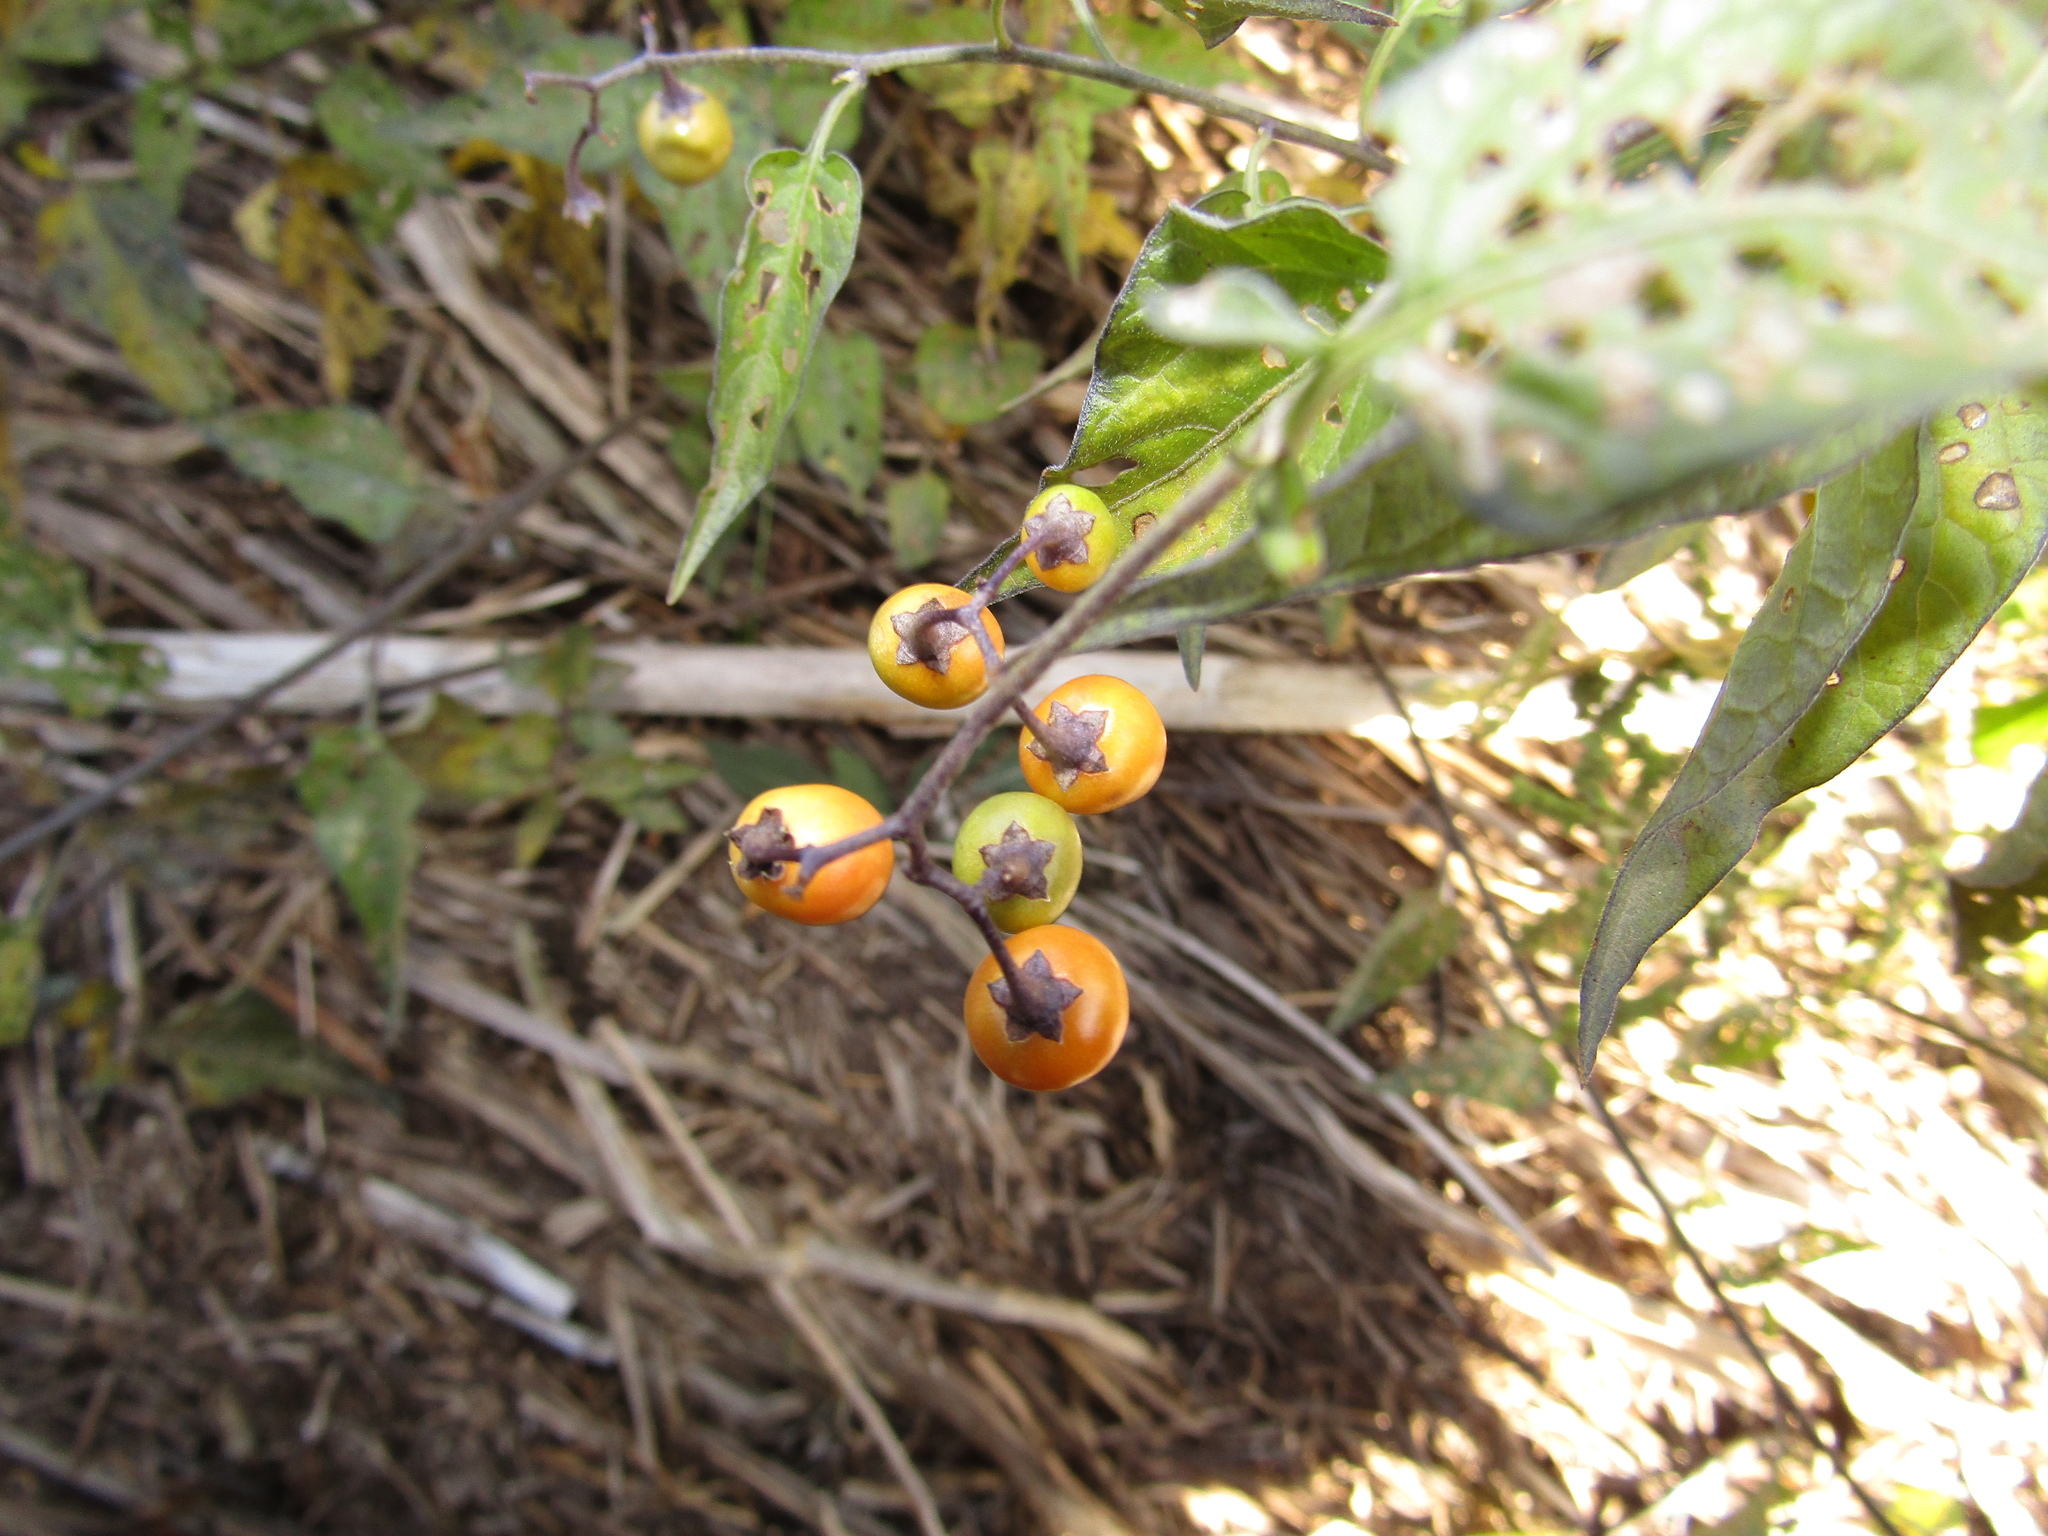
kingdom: Plantae
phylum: Tracheophyta
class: Magnoliopsida
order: Solanales
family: Solanaceae
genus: Solanum
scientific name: Solanum dulcamara
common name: Climbing nightshade
